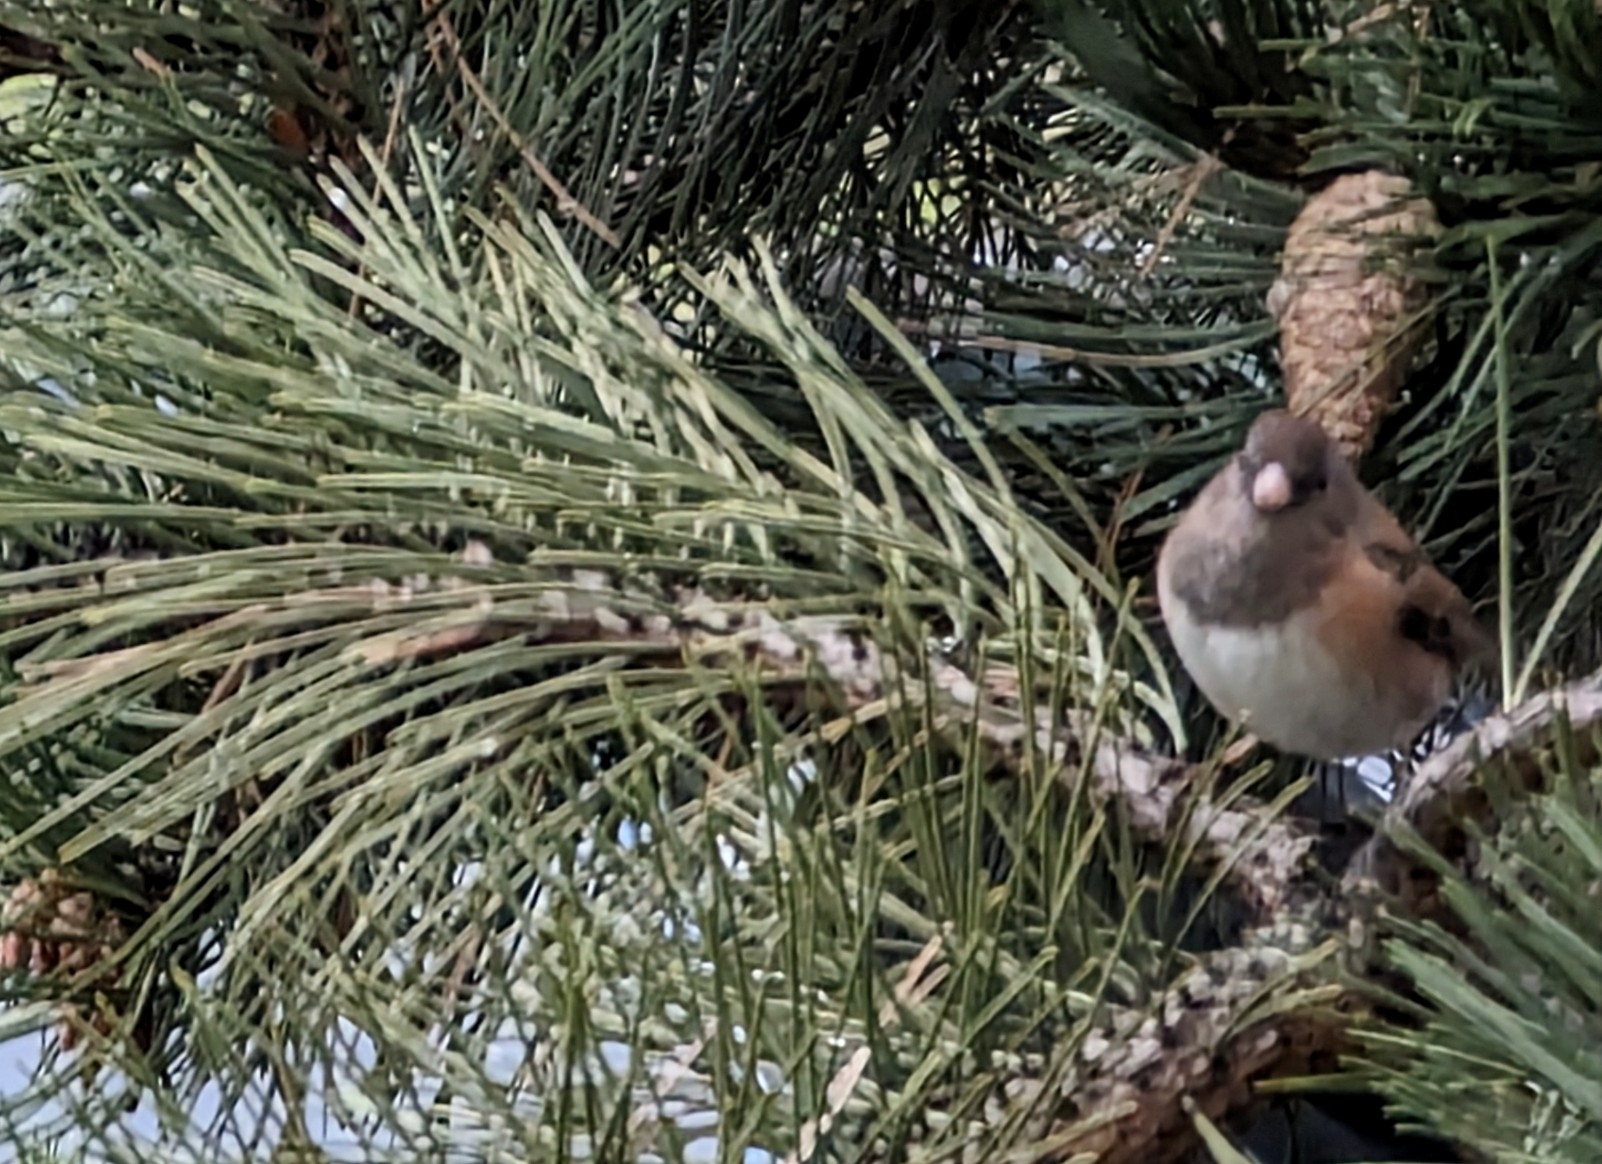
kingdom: Animalia
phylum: Chordata
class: Aves
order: Passeriformes
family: Passerellidae
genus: Junco
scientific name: Junco hyemalis
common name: Dark-eyed junco
